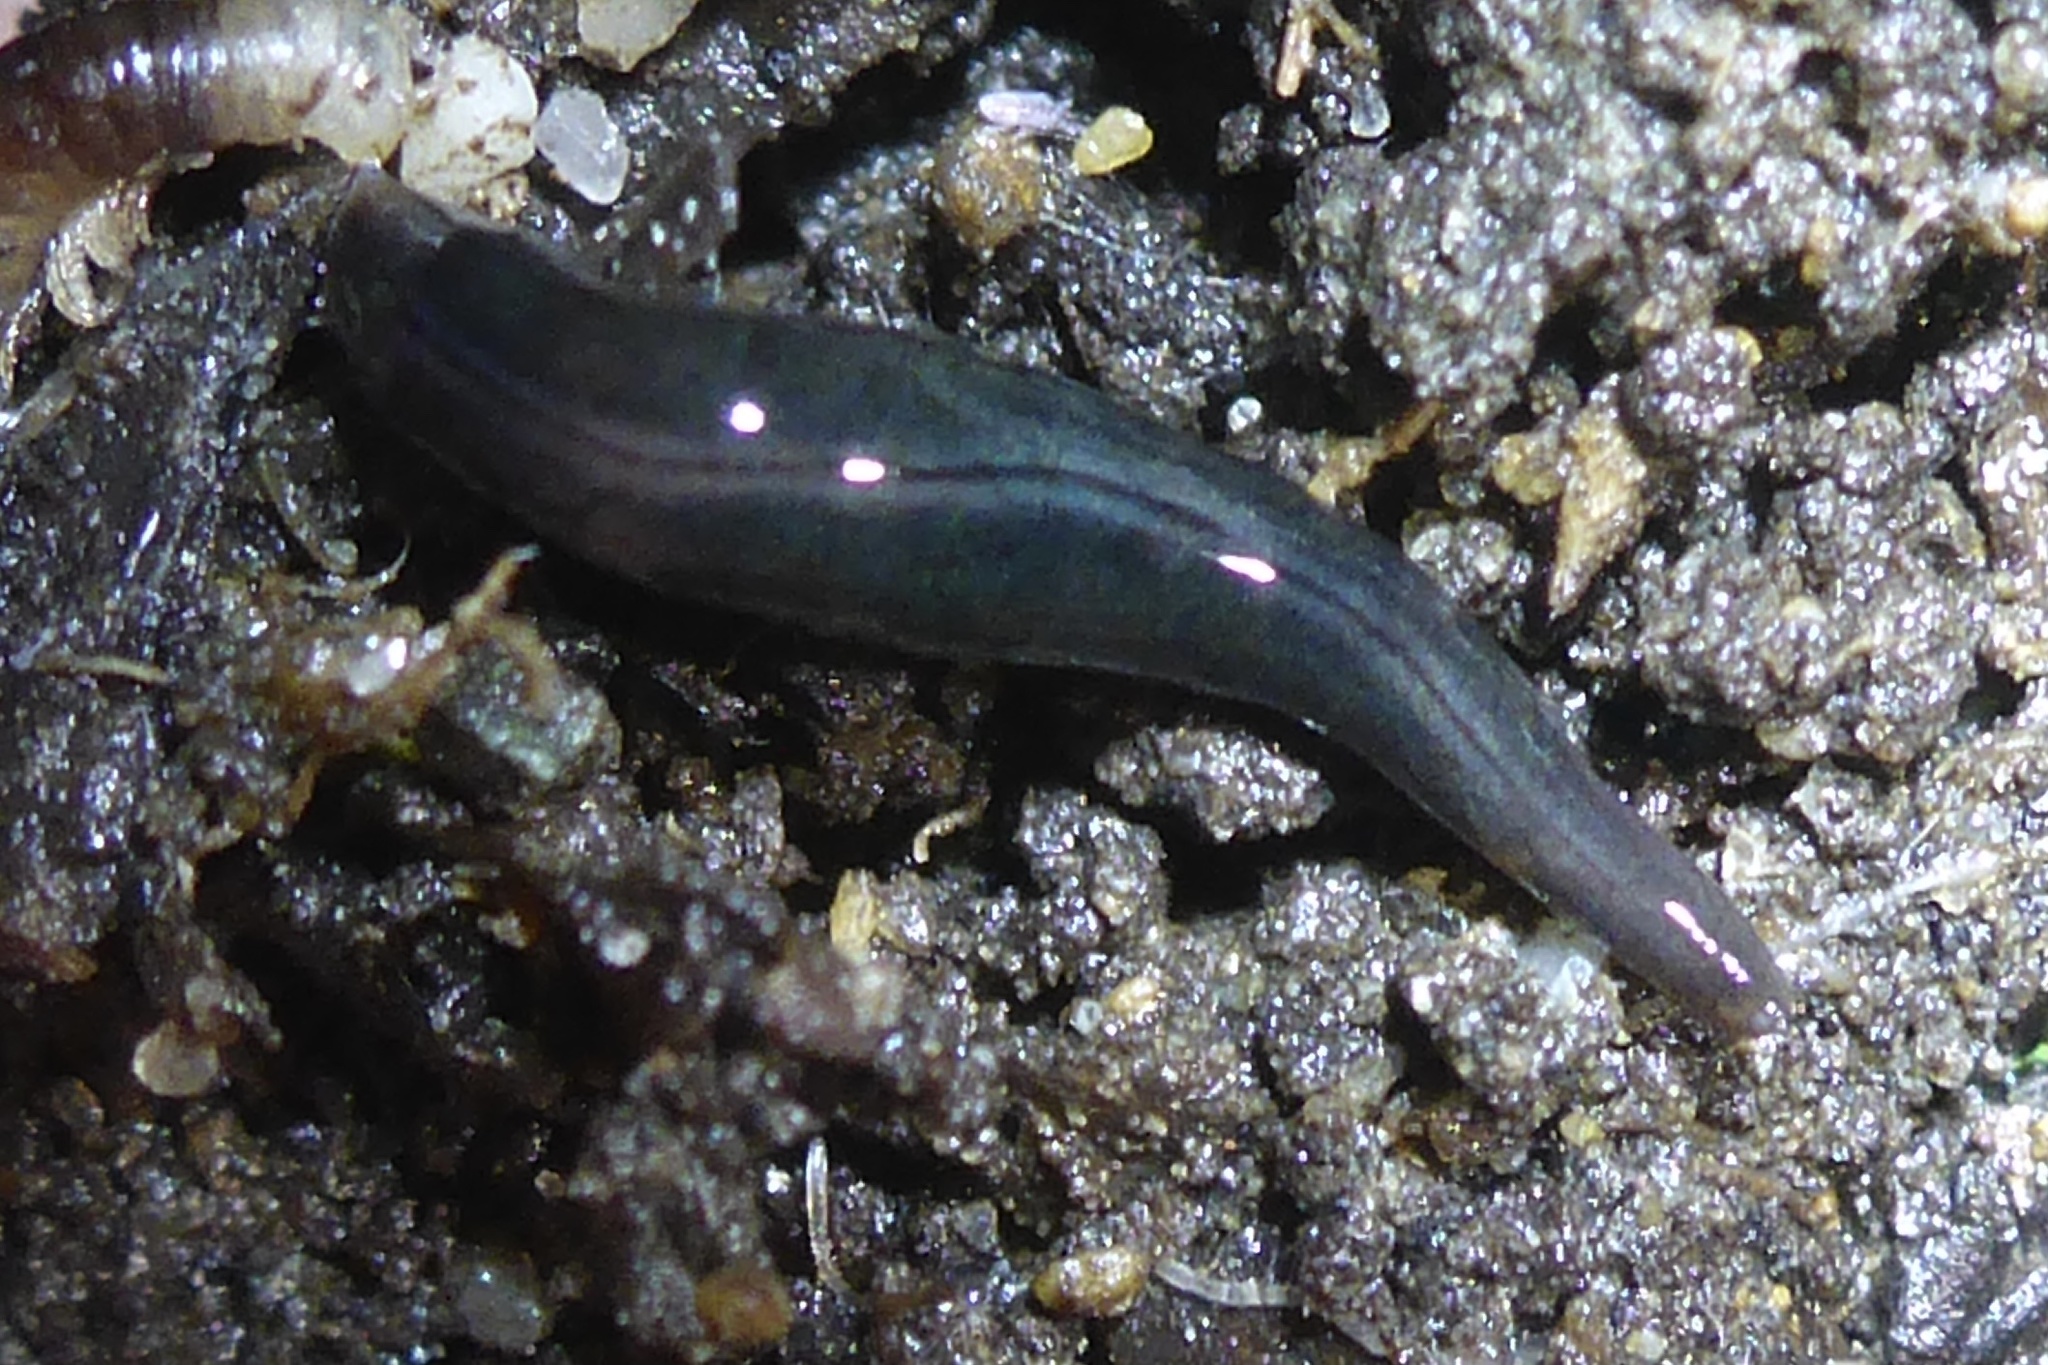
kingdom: Animalia
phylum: Platyhelminthes
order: Tricladida
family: Geoplanidae
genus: Parakontikia
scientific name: Parakontikia ventrolineata
